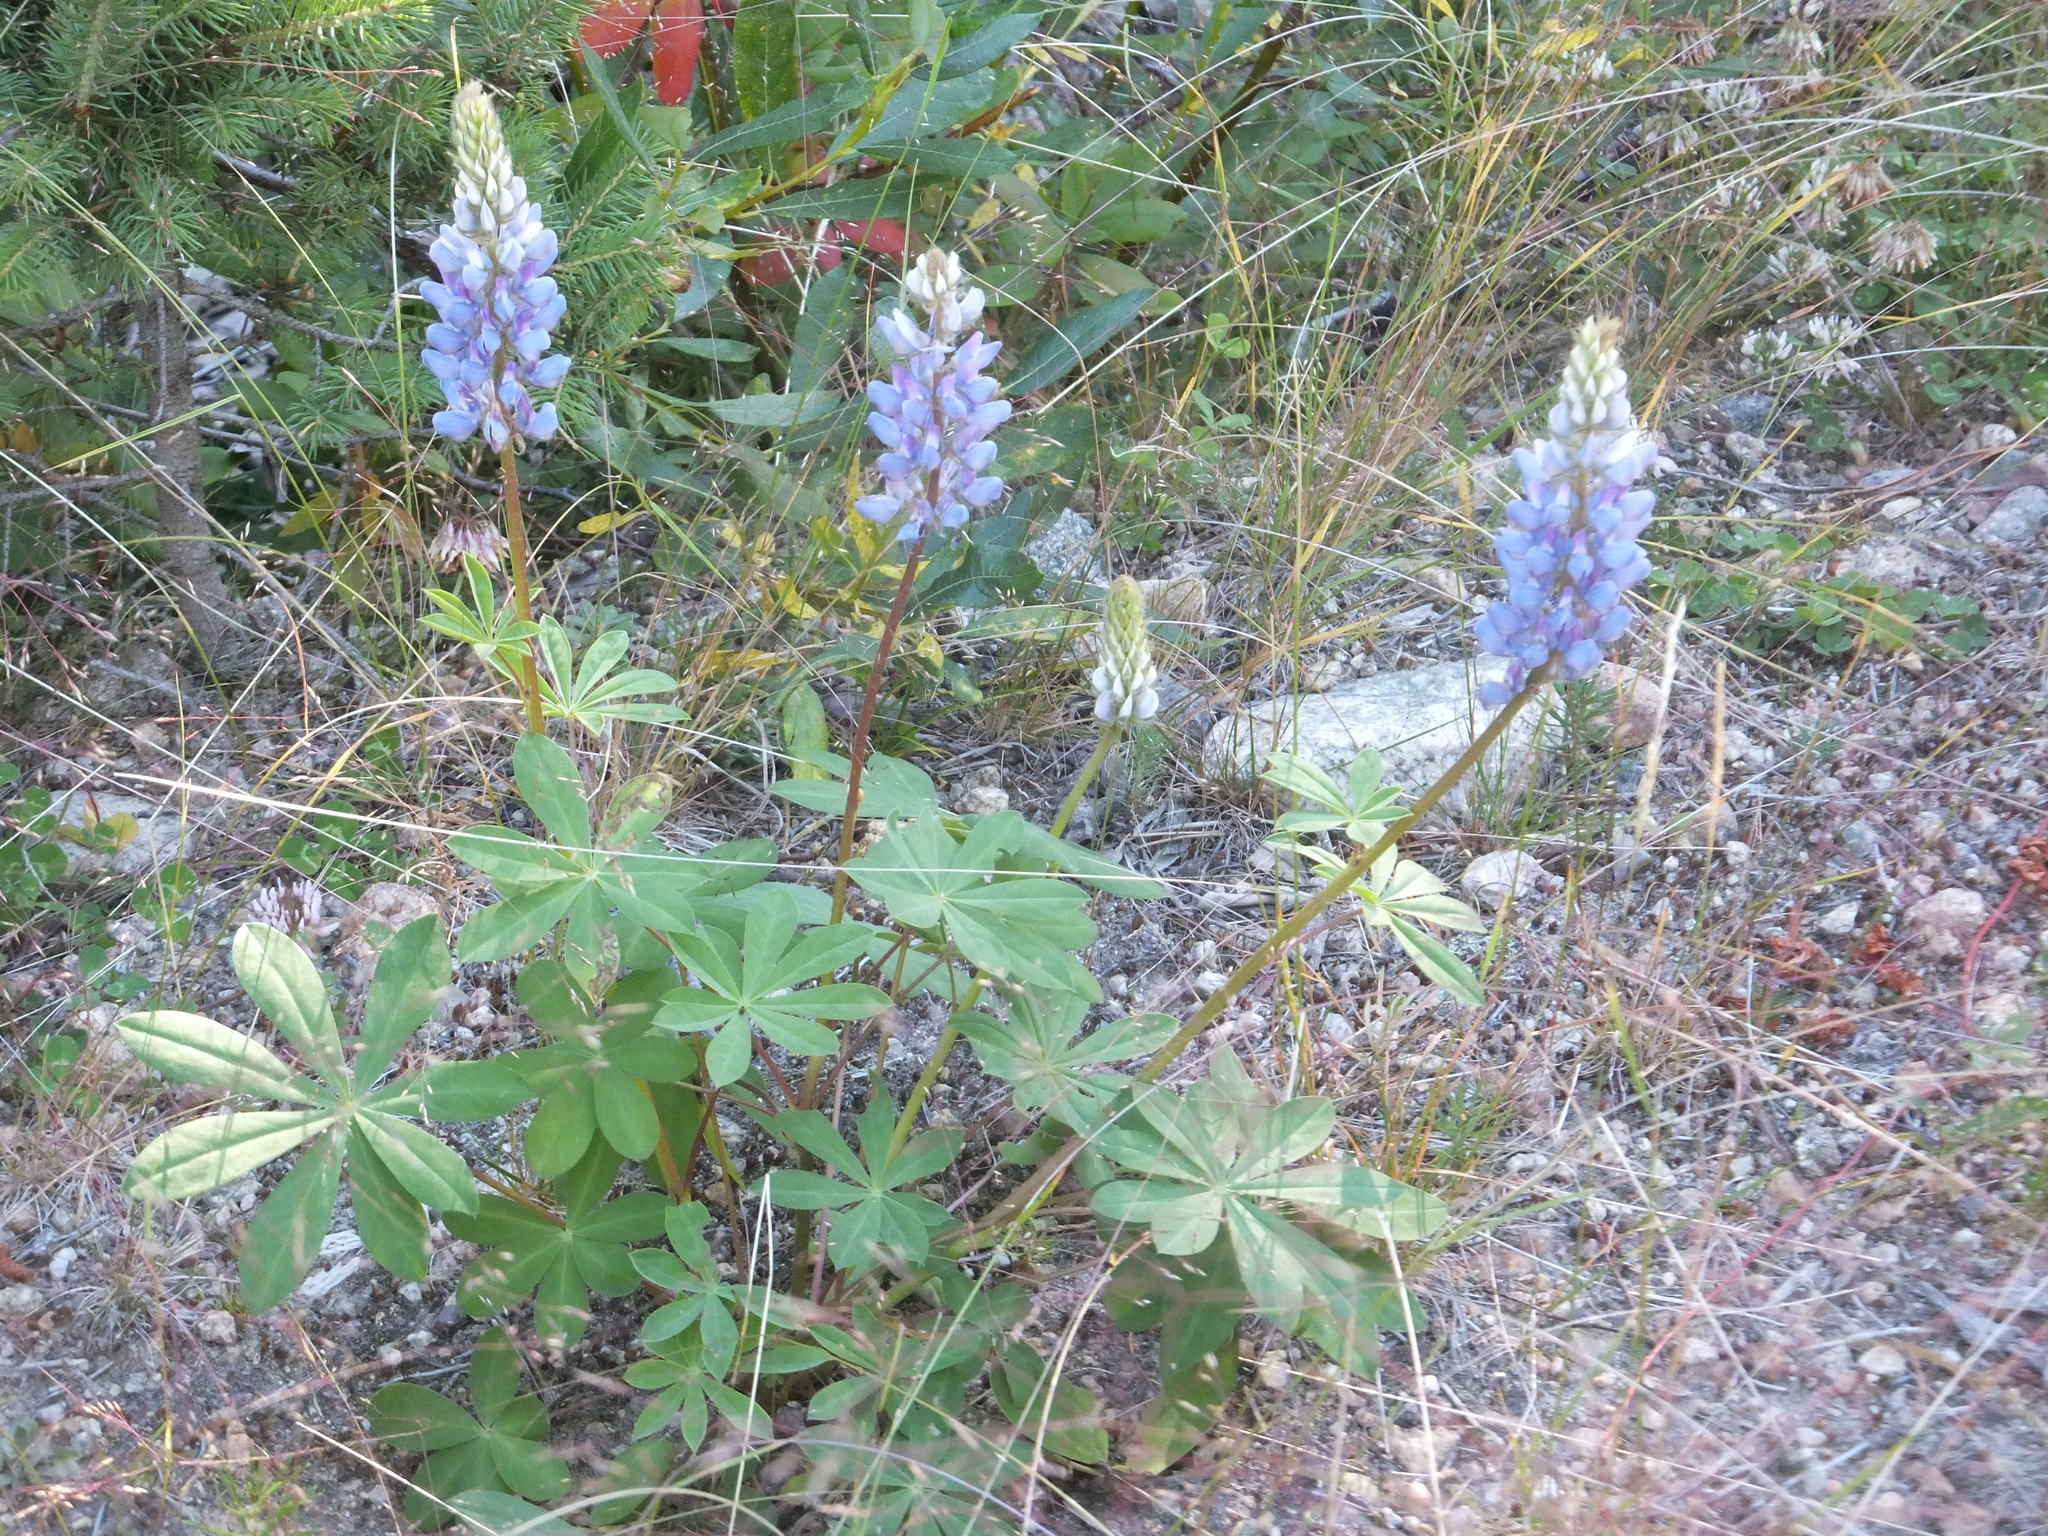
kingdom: Plantae
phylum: Tracheophyta
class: Magnoliopsida
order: Fabales
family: Fabaceae
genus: Lupinus
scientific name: Lupinus arcticus
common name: Arctic lupine
